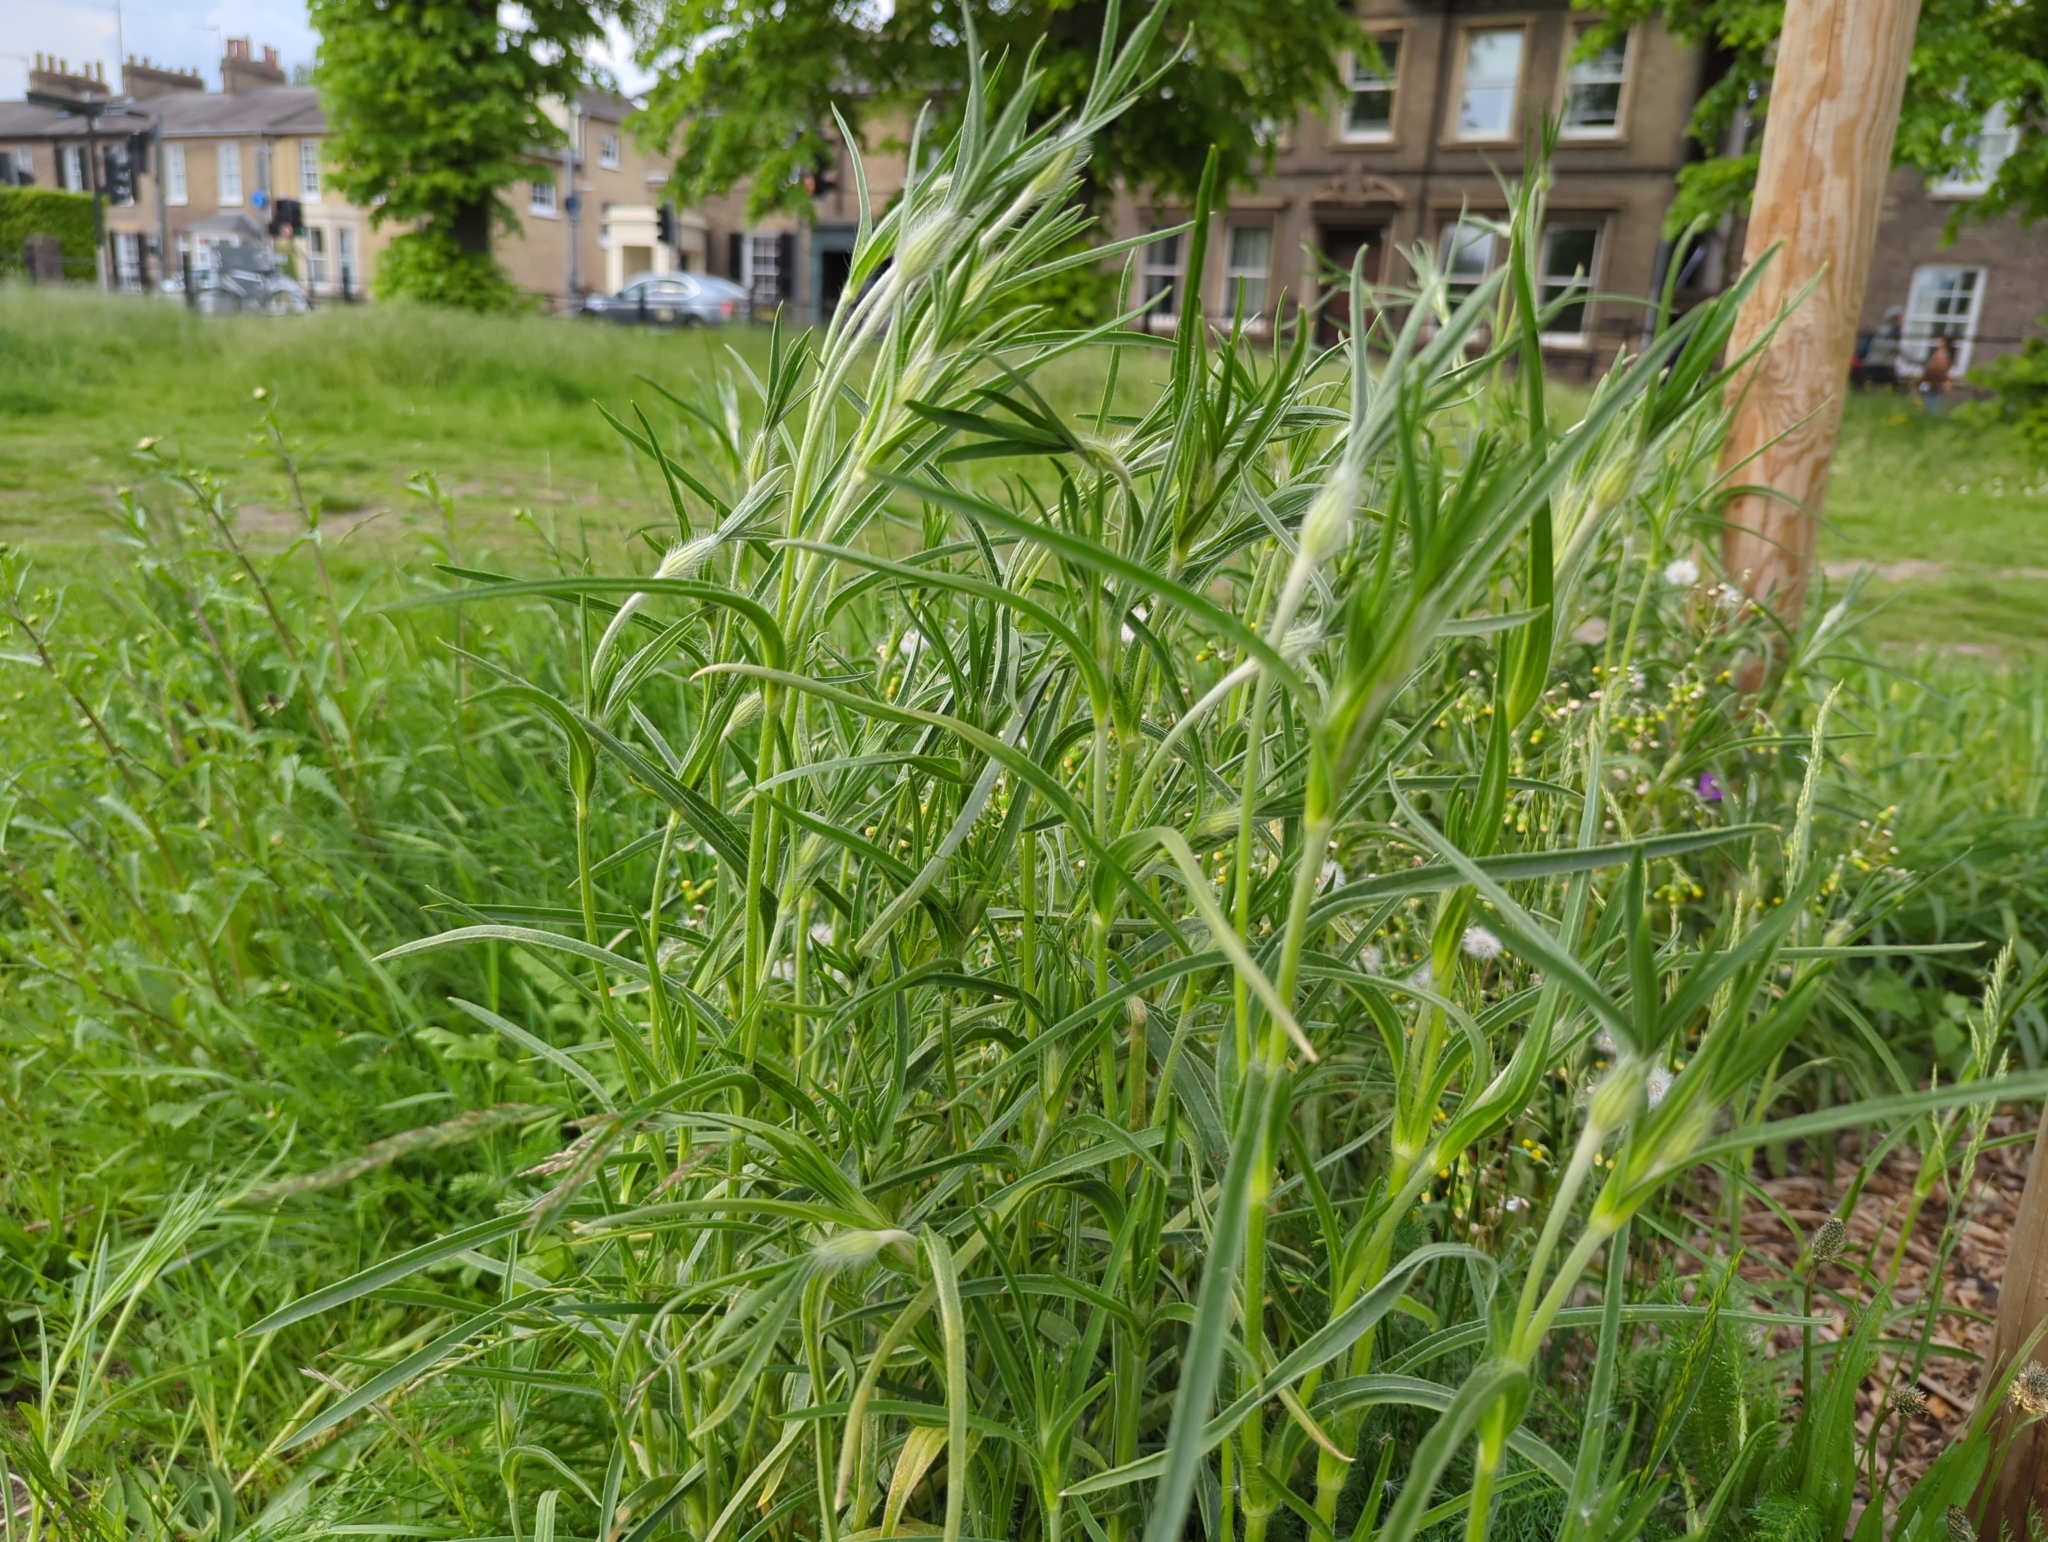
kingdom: Plantae
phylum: Tracheophyta
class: Magnoliopsida
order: Caryophyllales
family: Caryophyllaceae
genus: Agrostemma
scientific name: Agrostemma githago
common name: Common corncockle
